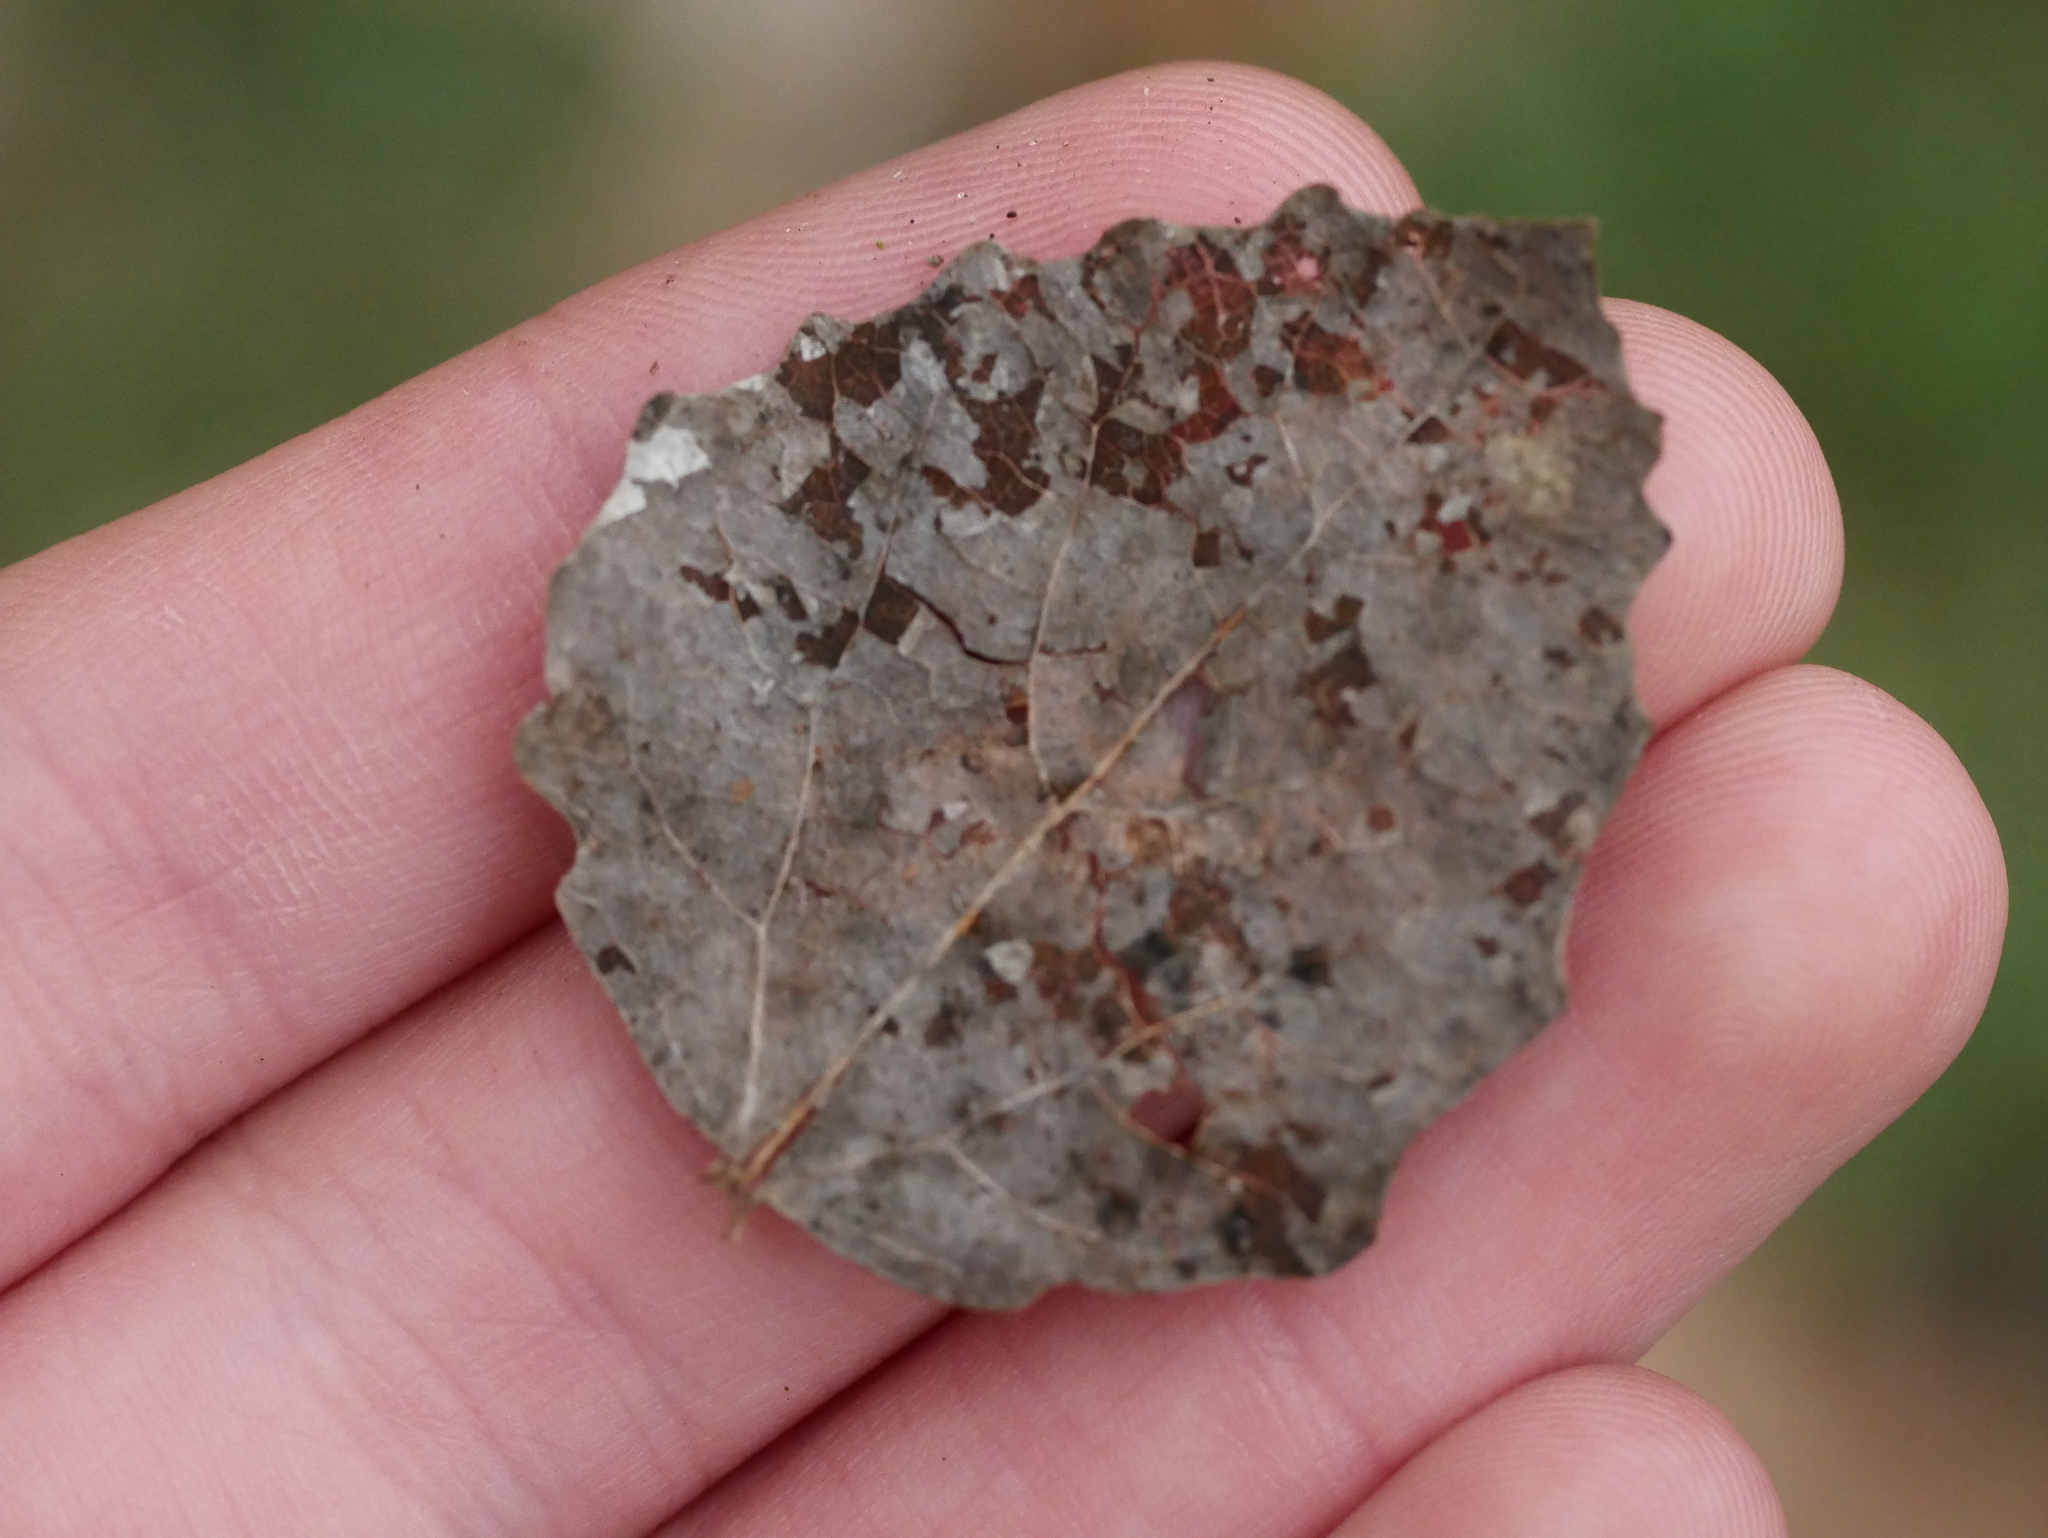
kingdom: Plantae
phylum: Tracheophyta
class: Magnoliopsida
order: Malpighiales
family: Salicaceae
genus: Populus
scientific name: Populus tremula
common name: European aspen
